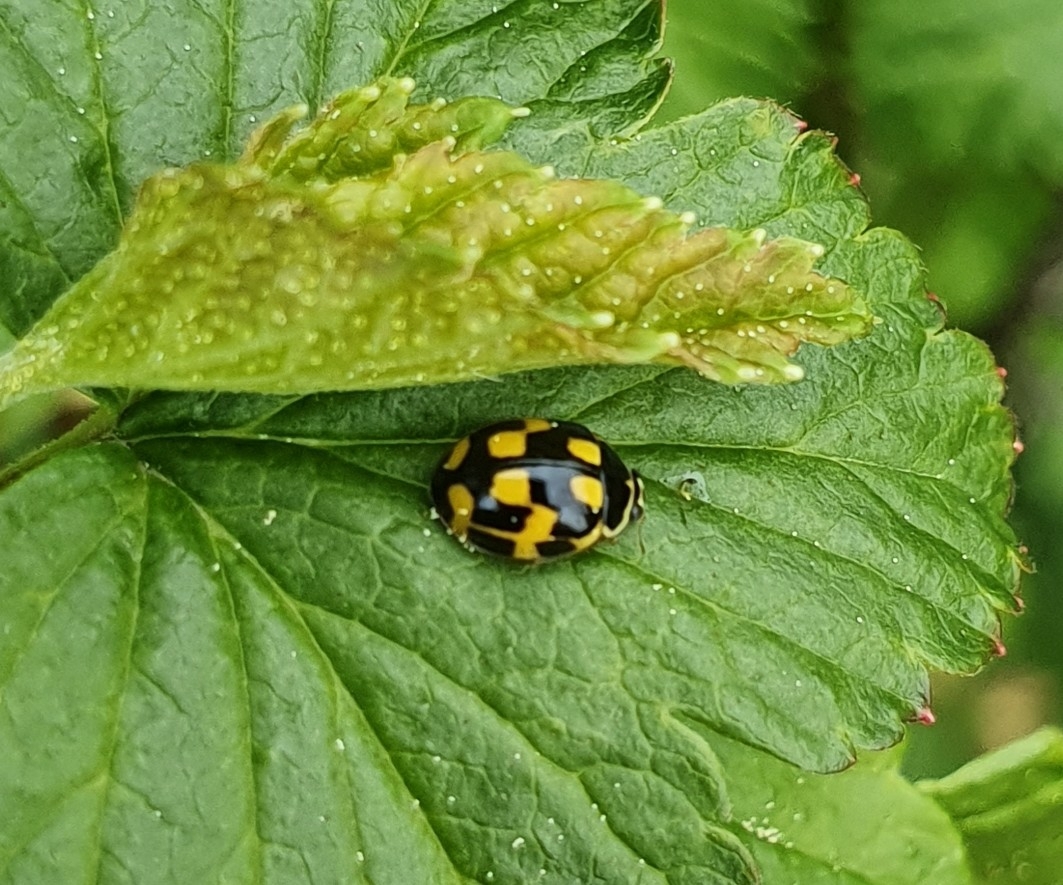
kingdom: Animalia
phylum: Arthropoda
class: Insecta
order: Coleoptera
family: Coccinellidae
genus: Propylaea
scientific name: Propylaea quatuordecimpunctata
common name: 14-spotted ladybird beetle
